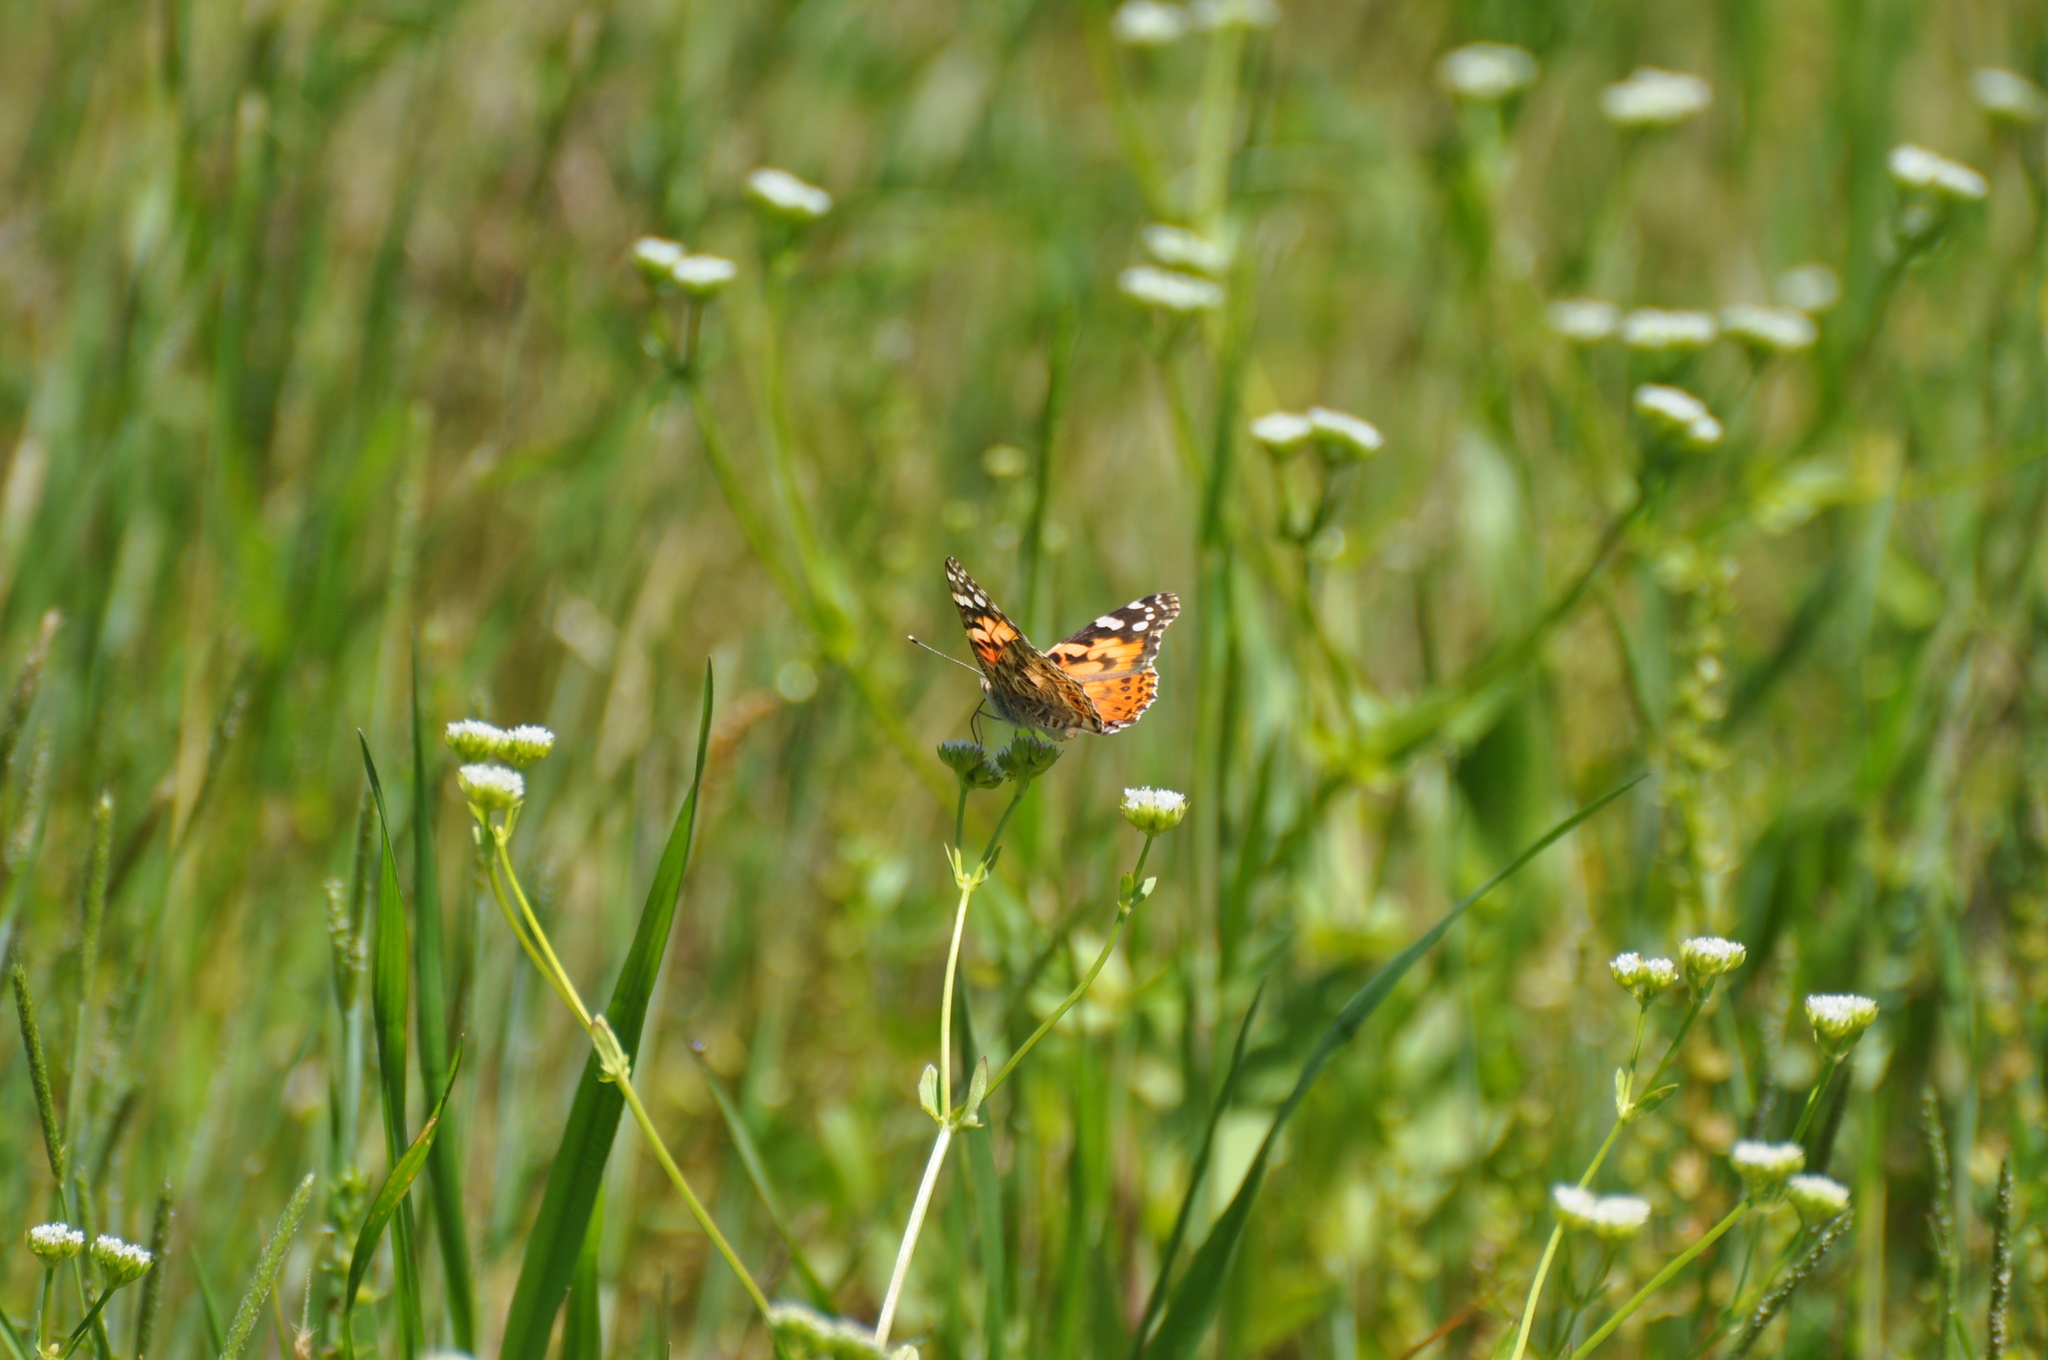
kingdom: Animalia
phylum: Arthropoda
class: Insecta
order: Lepidoptera
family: Nymphalidae
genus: Vanessa
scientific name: Vanessa cardui
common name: Painted lady
